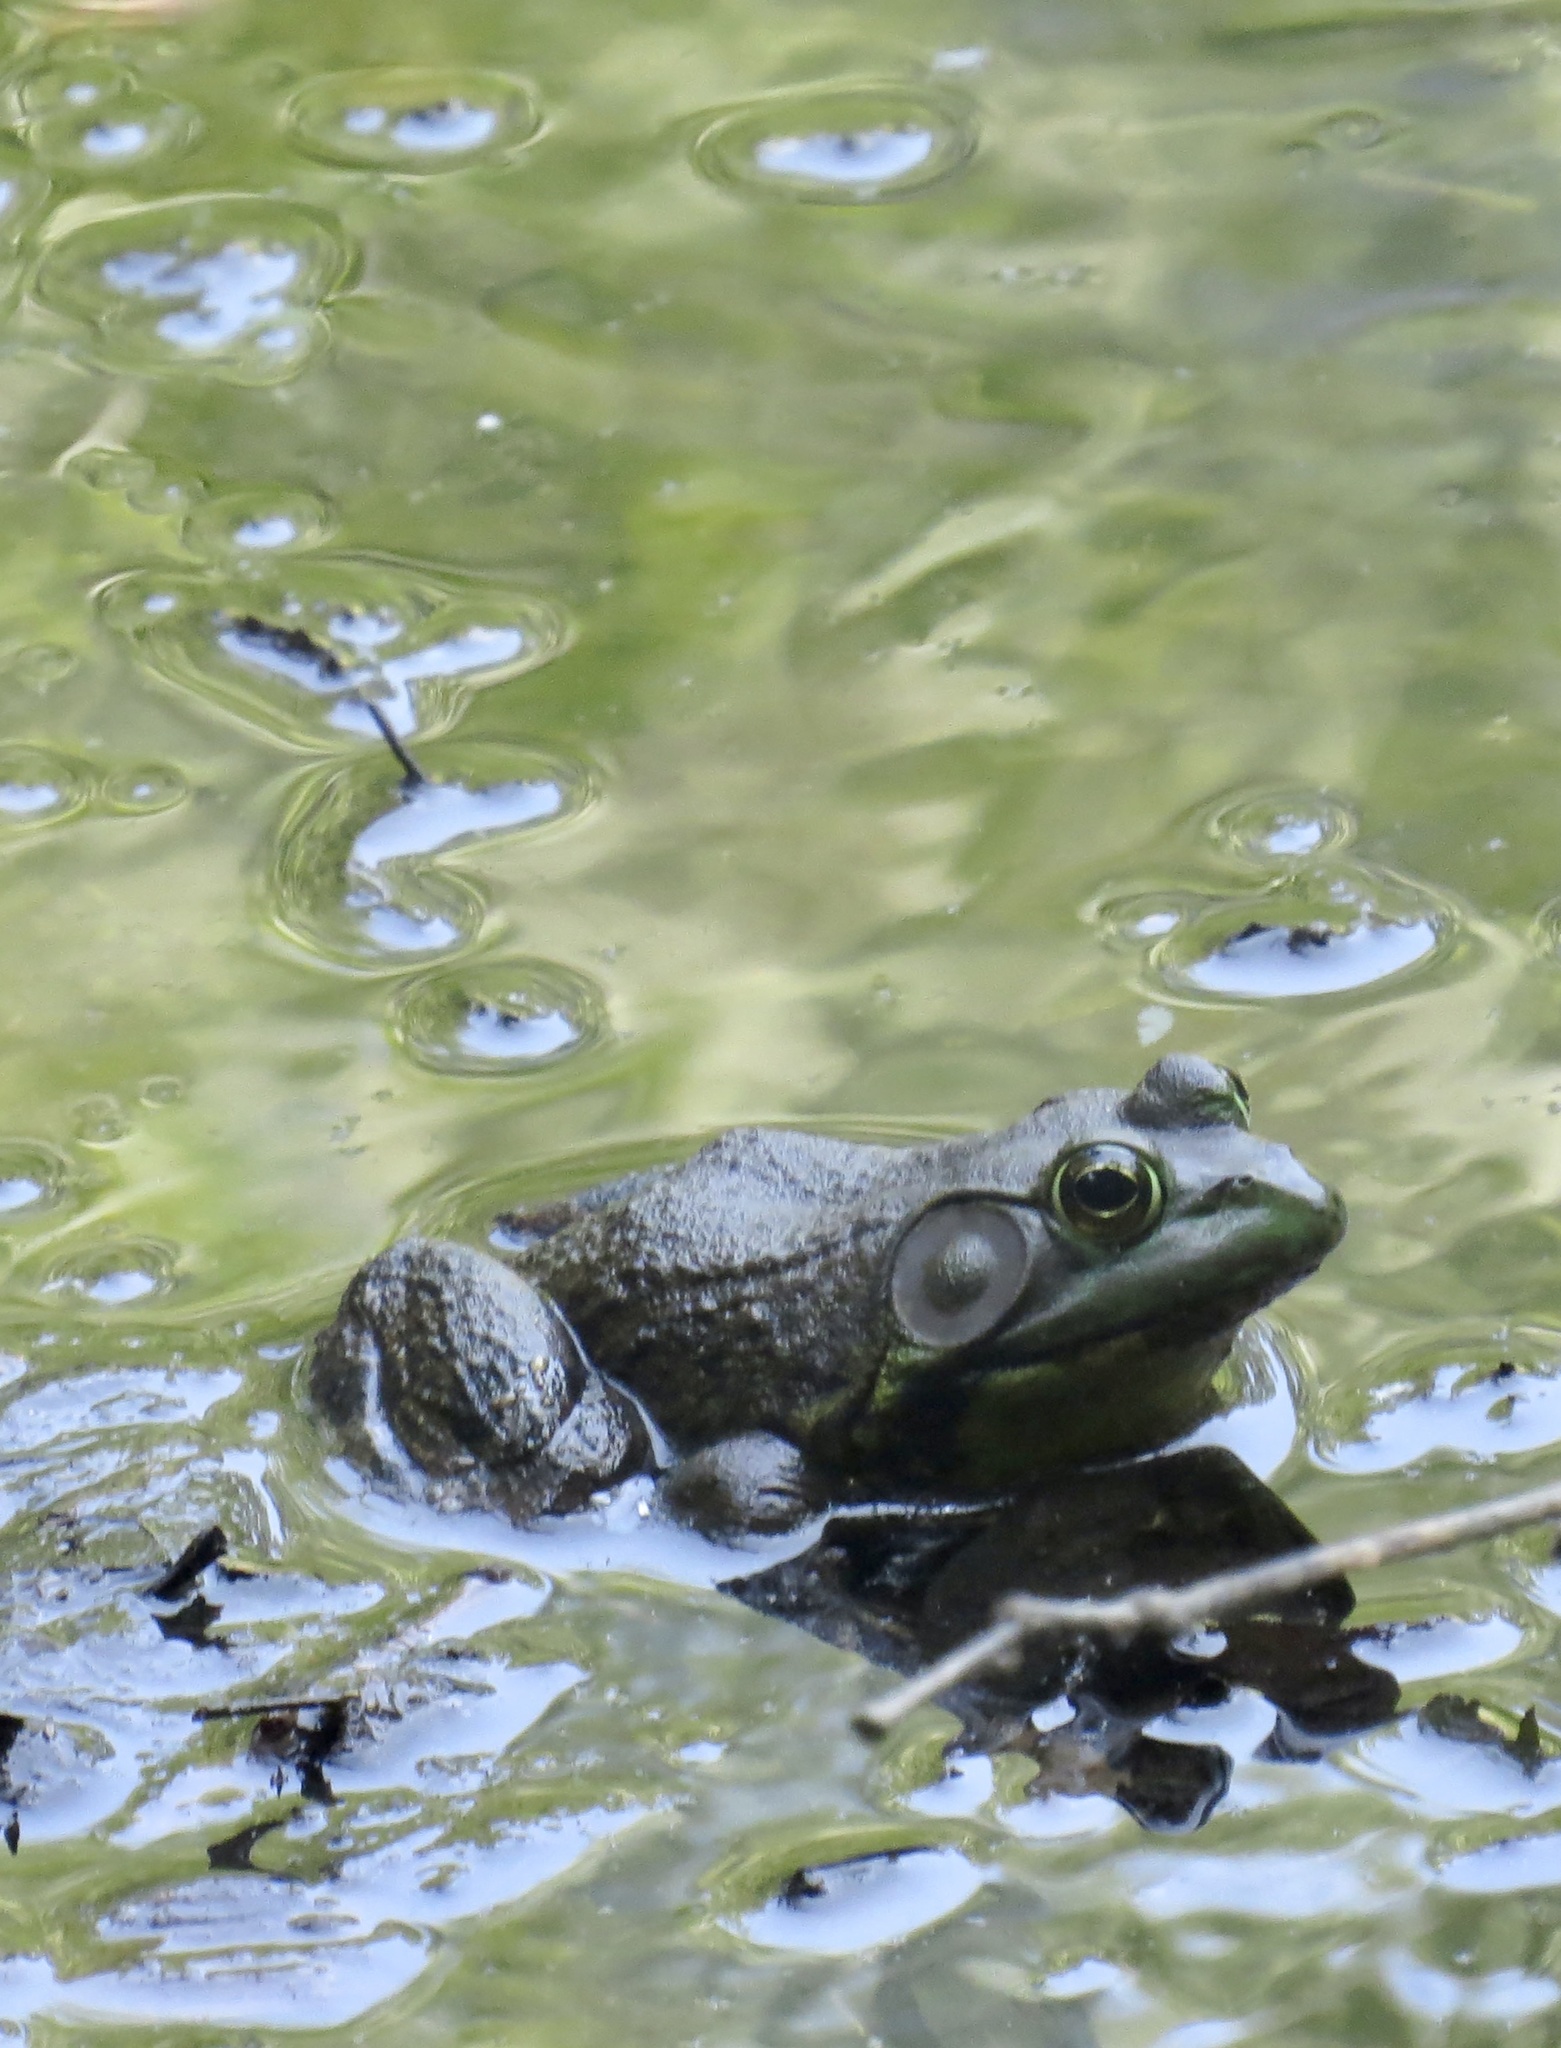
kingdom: Animalia
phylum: Chordata
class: Amphibia
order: Anura
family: Ranidae
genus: Lithobates
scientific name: Lithobates catesbeianus
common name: American bullfrog
